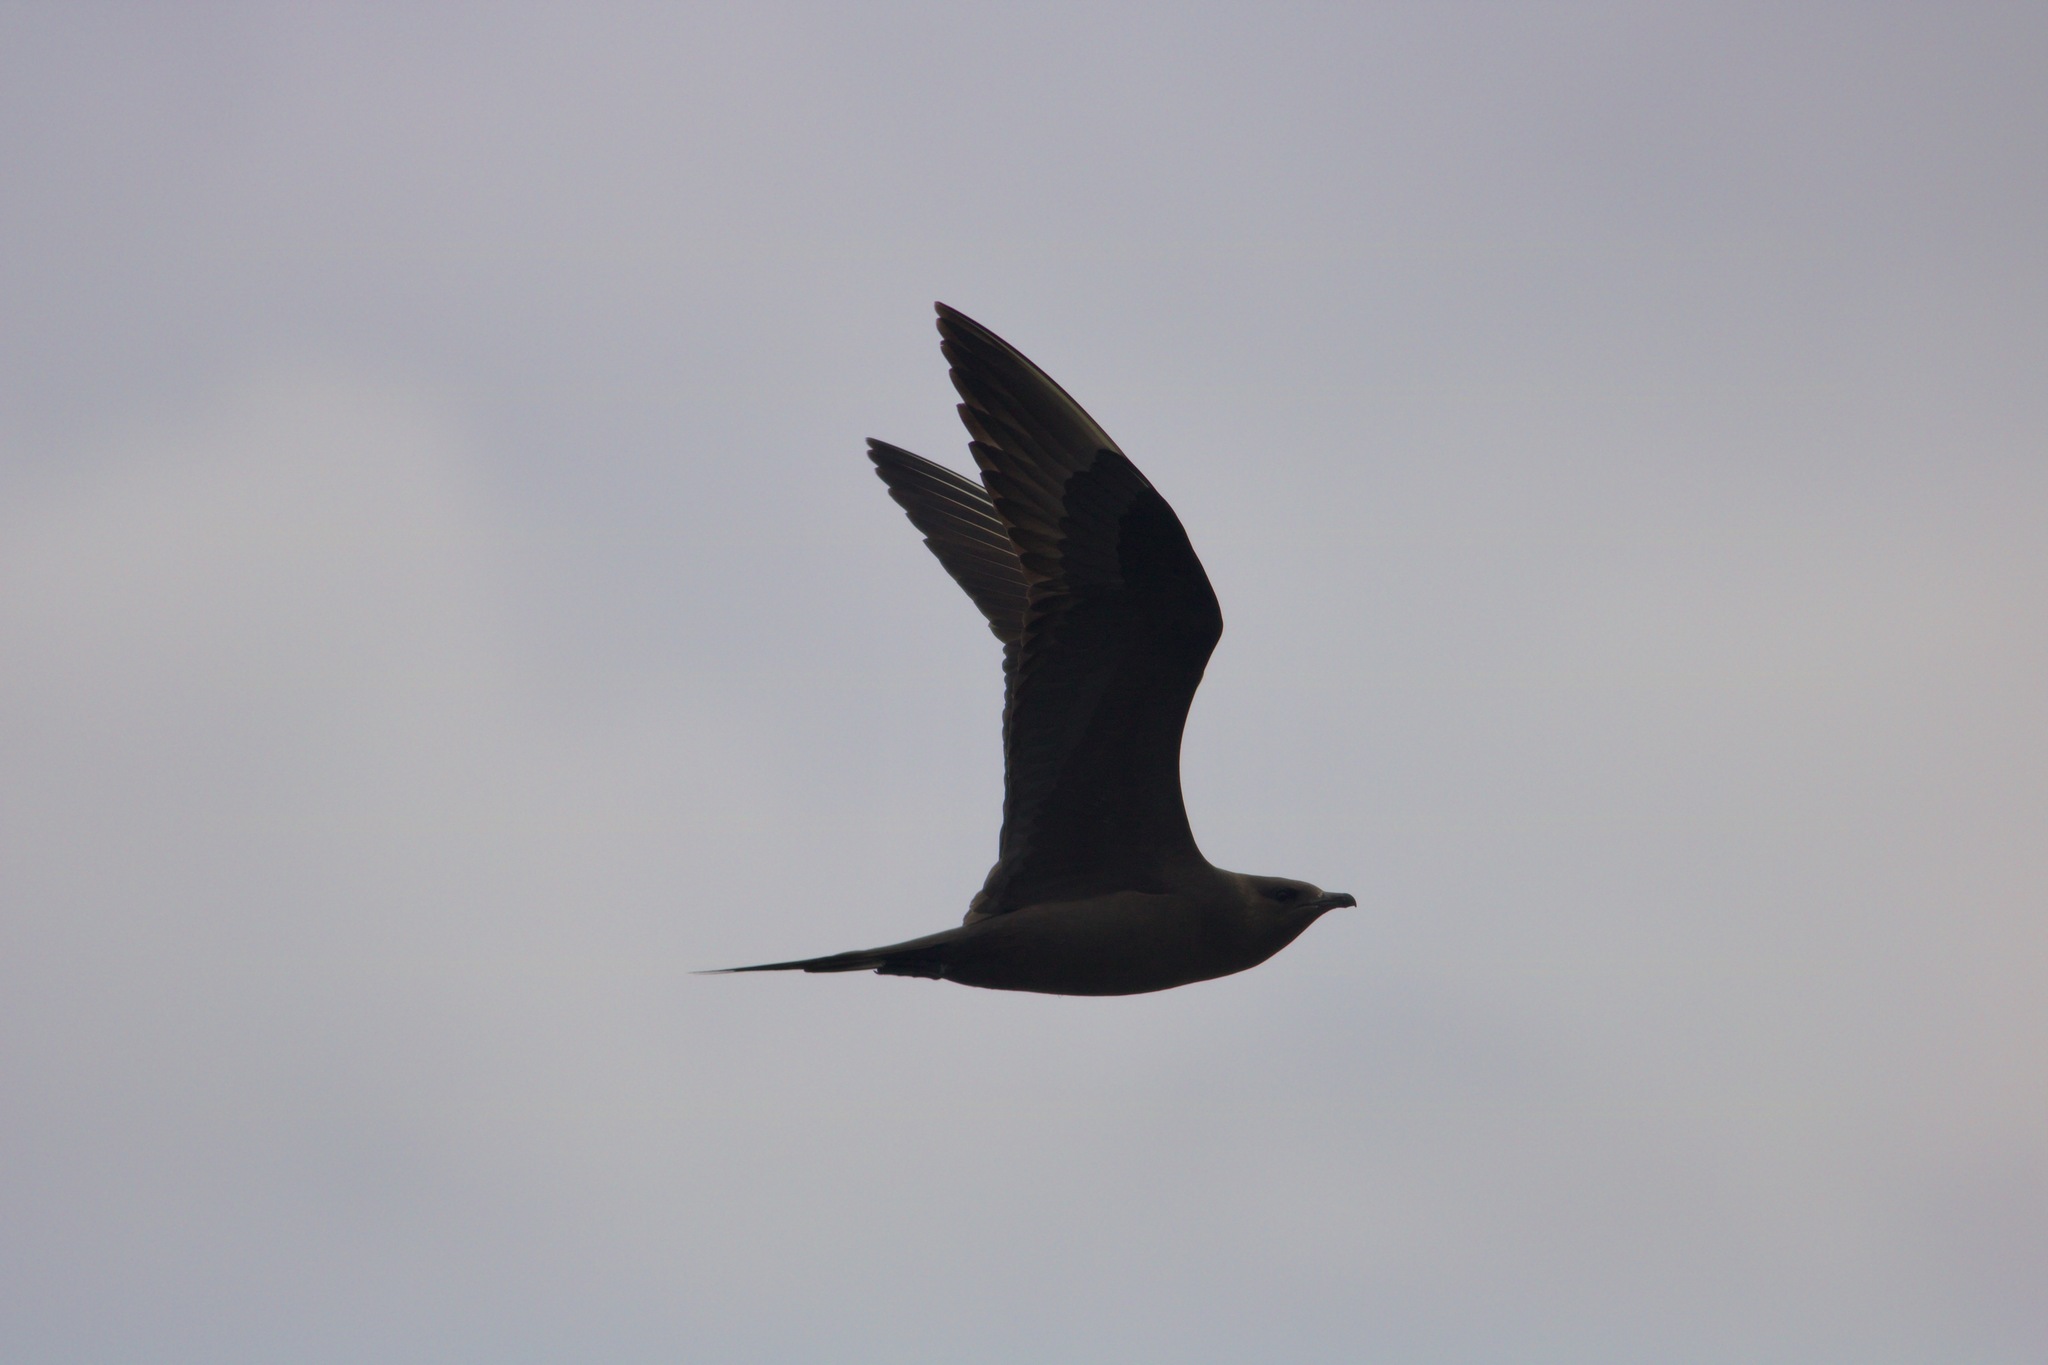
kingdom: Animalia
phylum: Chordata
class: Aves
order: Charadriiformes
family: Stercorariidae
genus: Stercorarius
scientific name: Stercorarius parasiticus
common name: Parasitic jaeger
